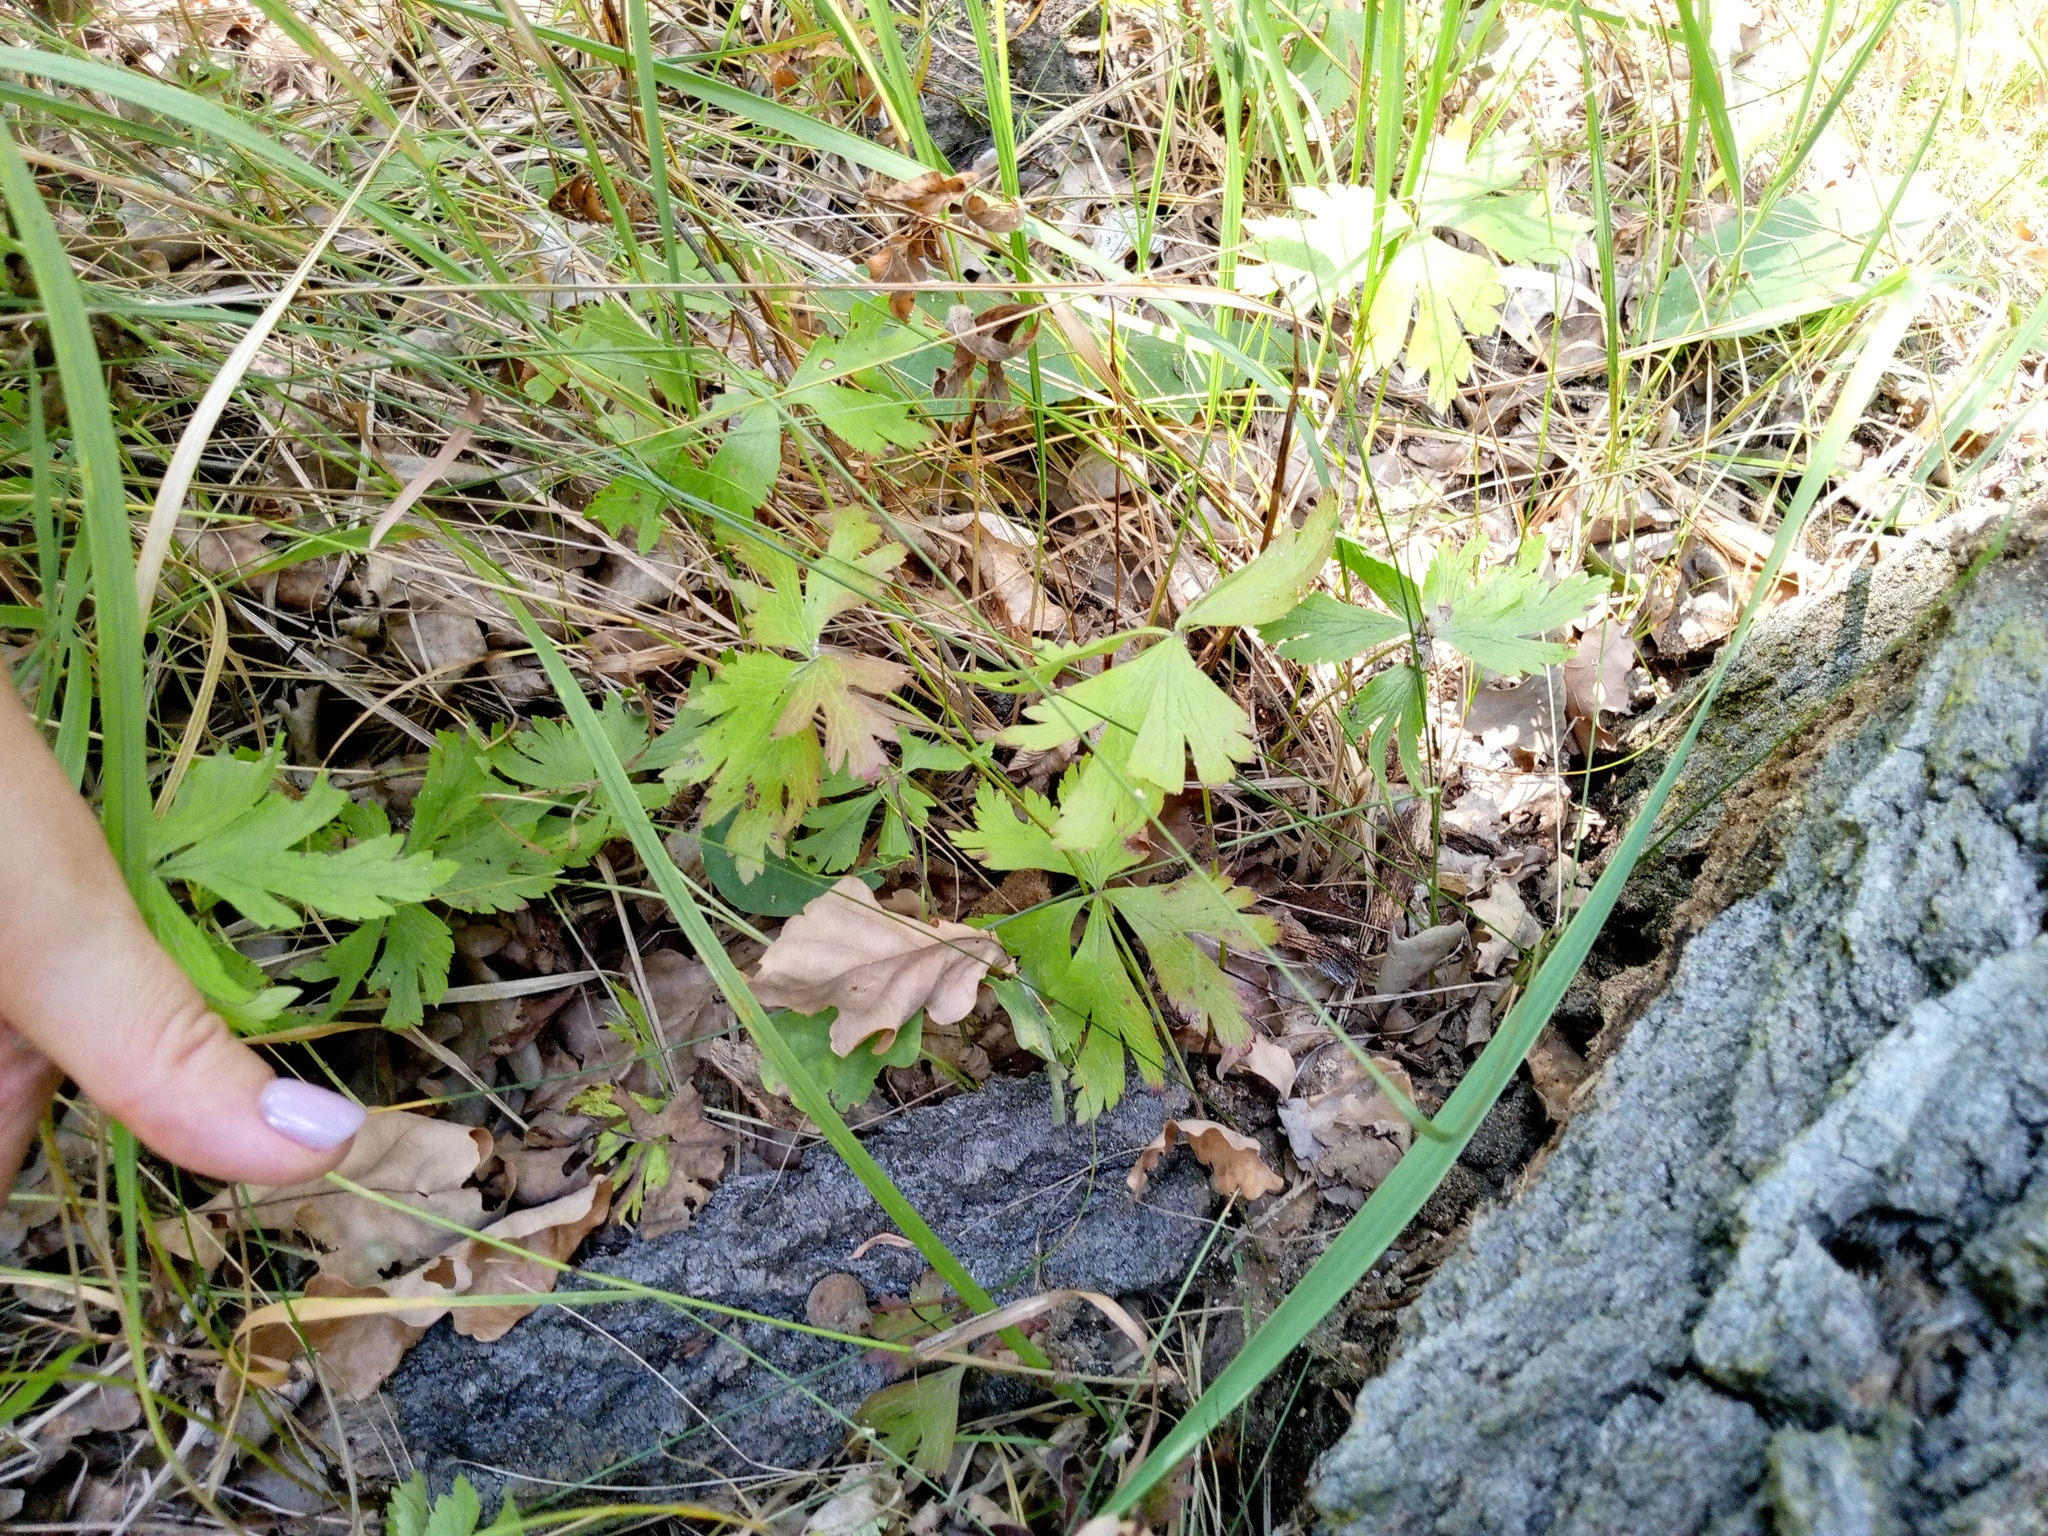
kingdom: Plantae
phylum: Tracheophyta
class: Magnoliopsida
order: Ranunculales
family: Ranunculaceae
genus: Anemone
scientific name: Anemone sylvestris
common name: Snowdrop anemone
